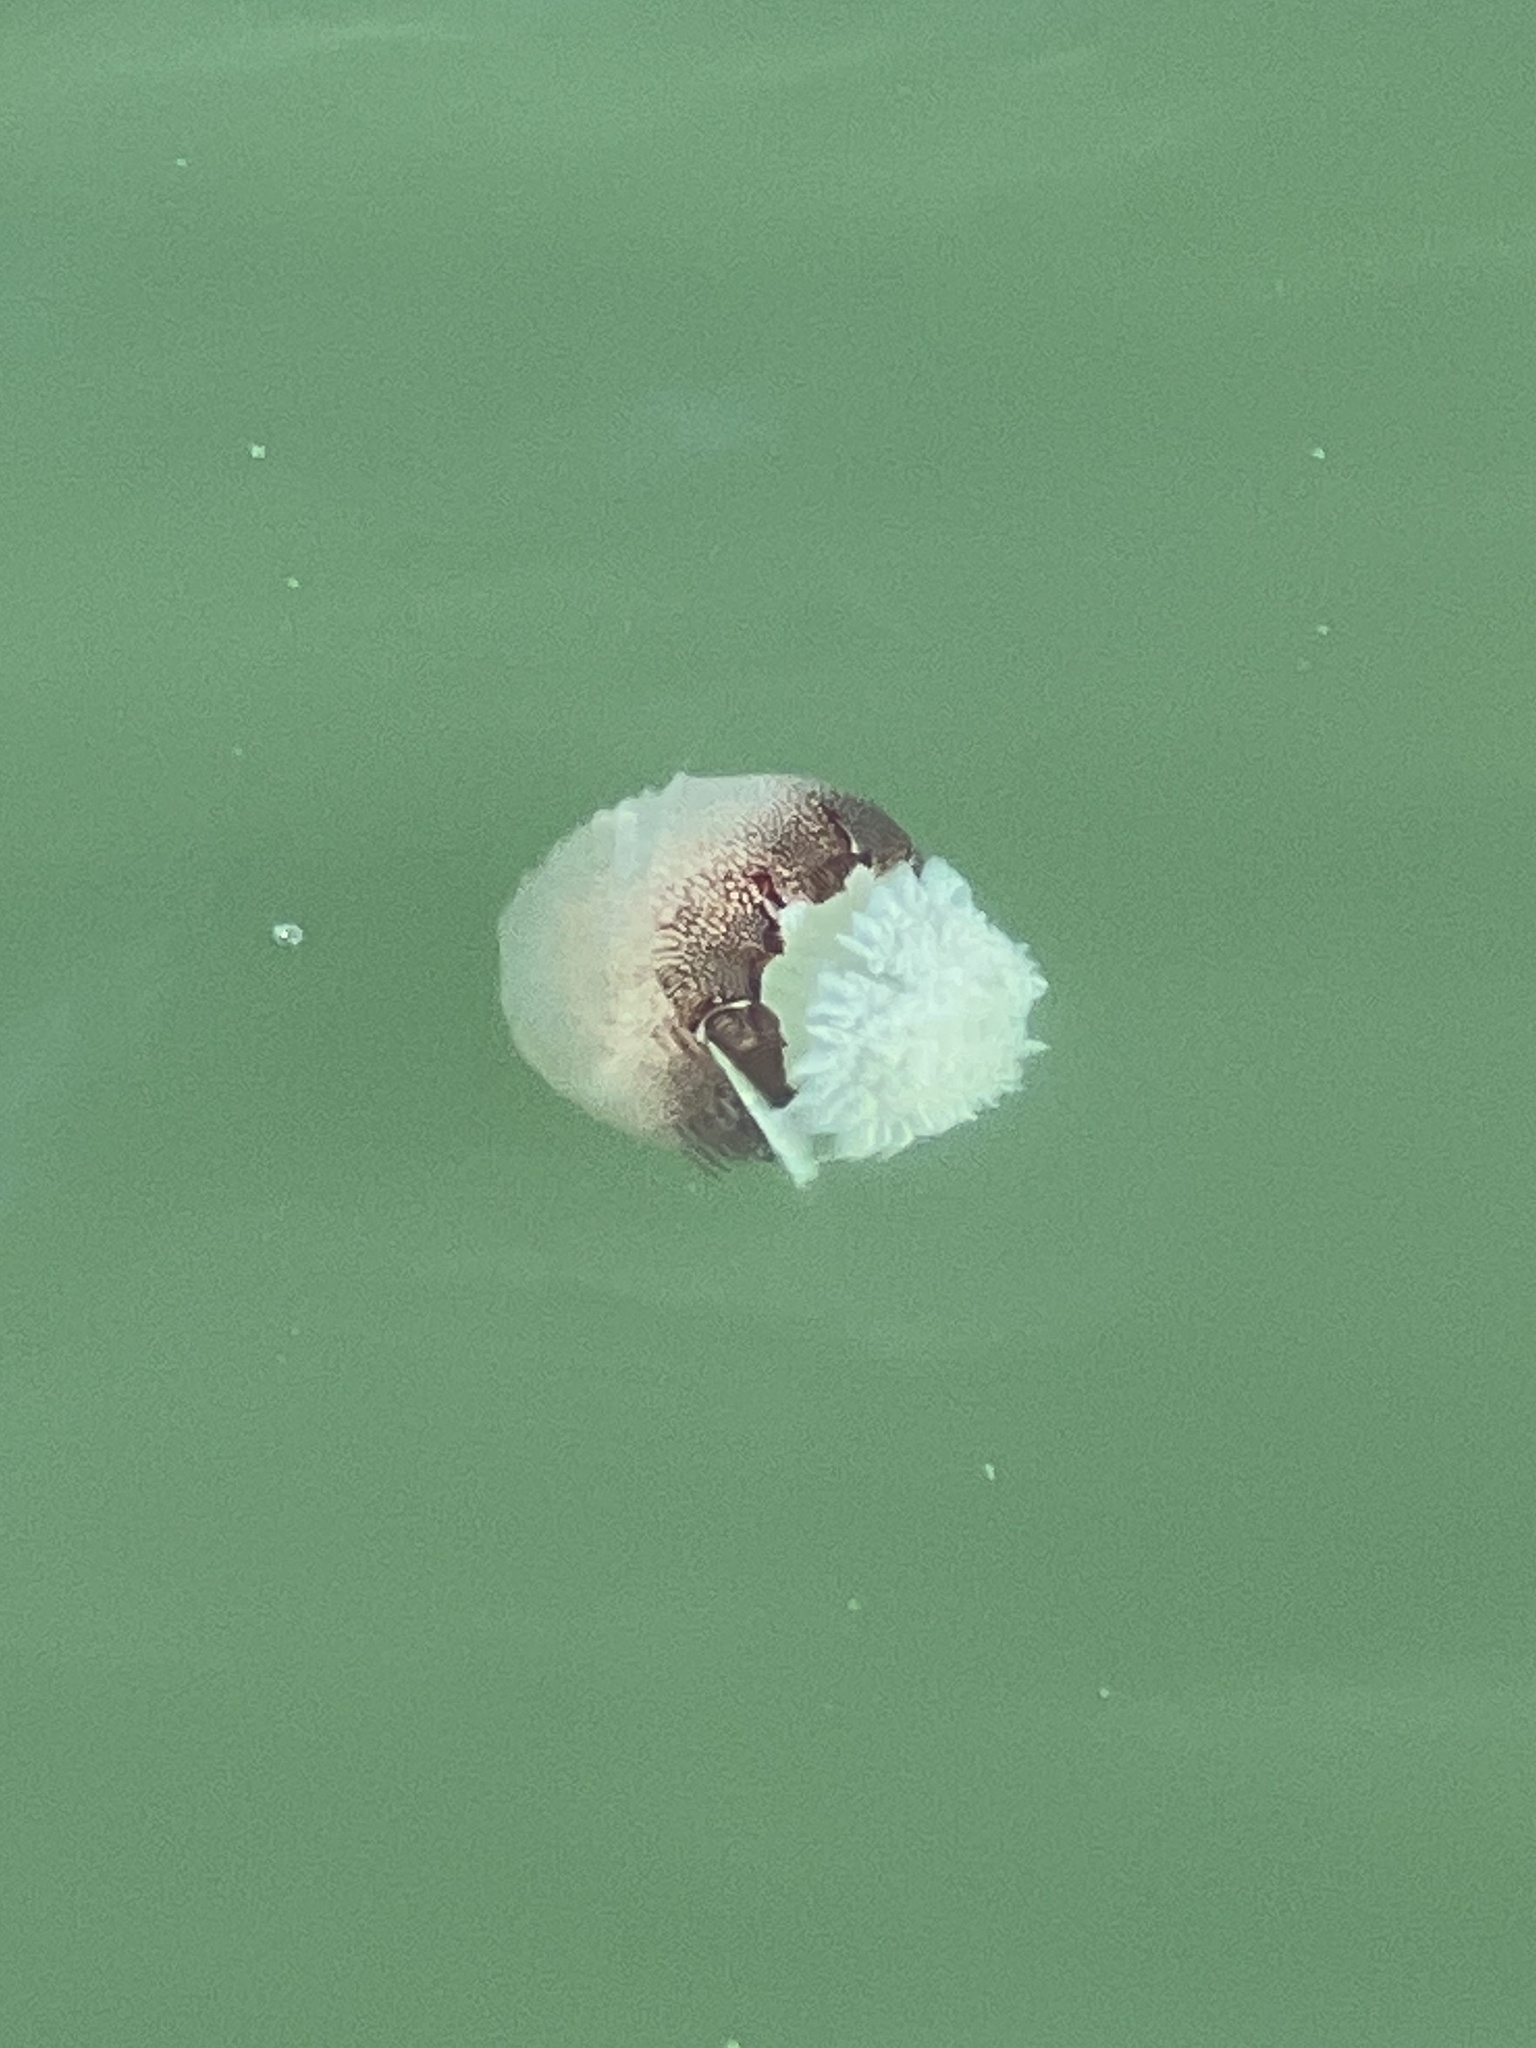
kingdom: Animalia
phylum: Cnidaria
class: Scyphozoa
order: Rhizostomeae
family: Stomolophidae
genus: Stomolophus
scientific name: Stomolophus meleagris
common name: Cabbagehead
